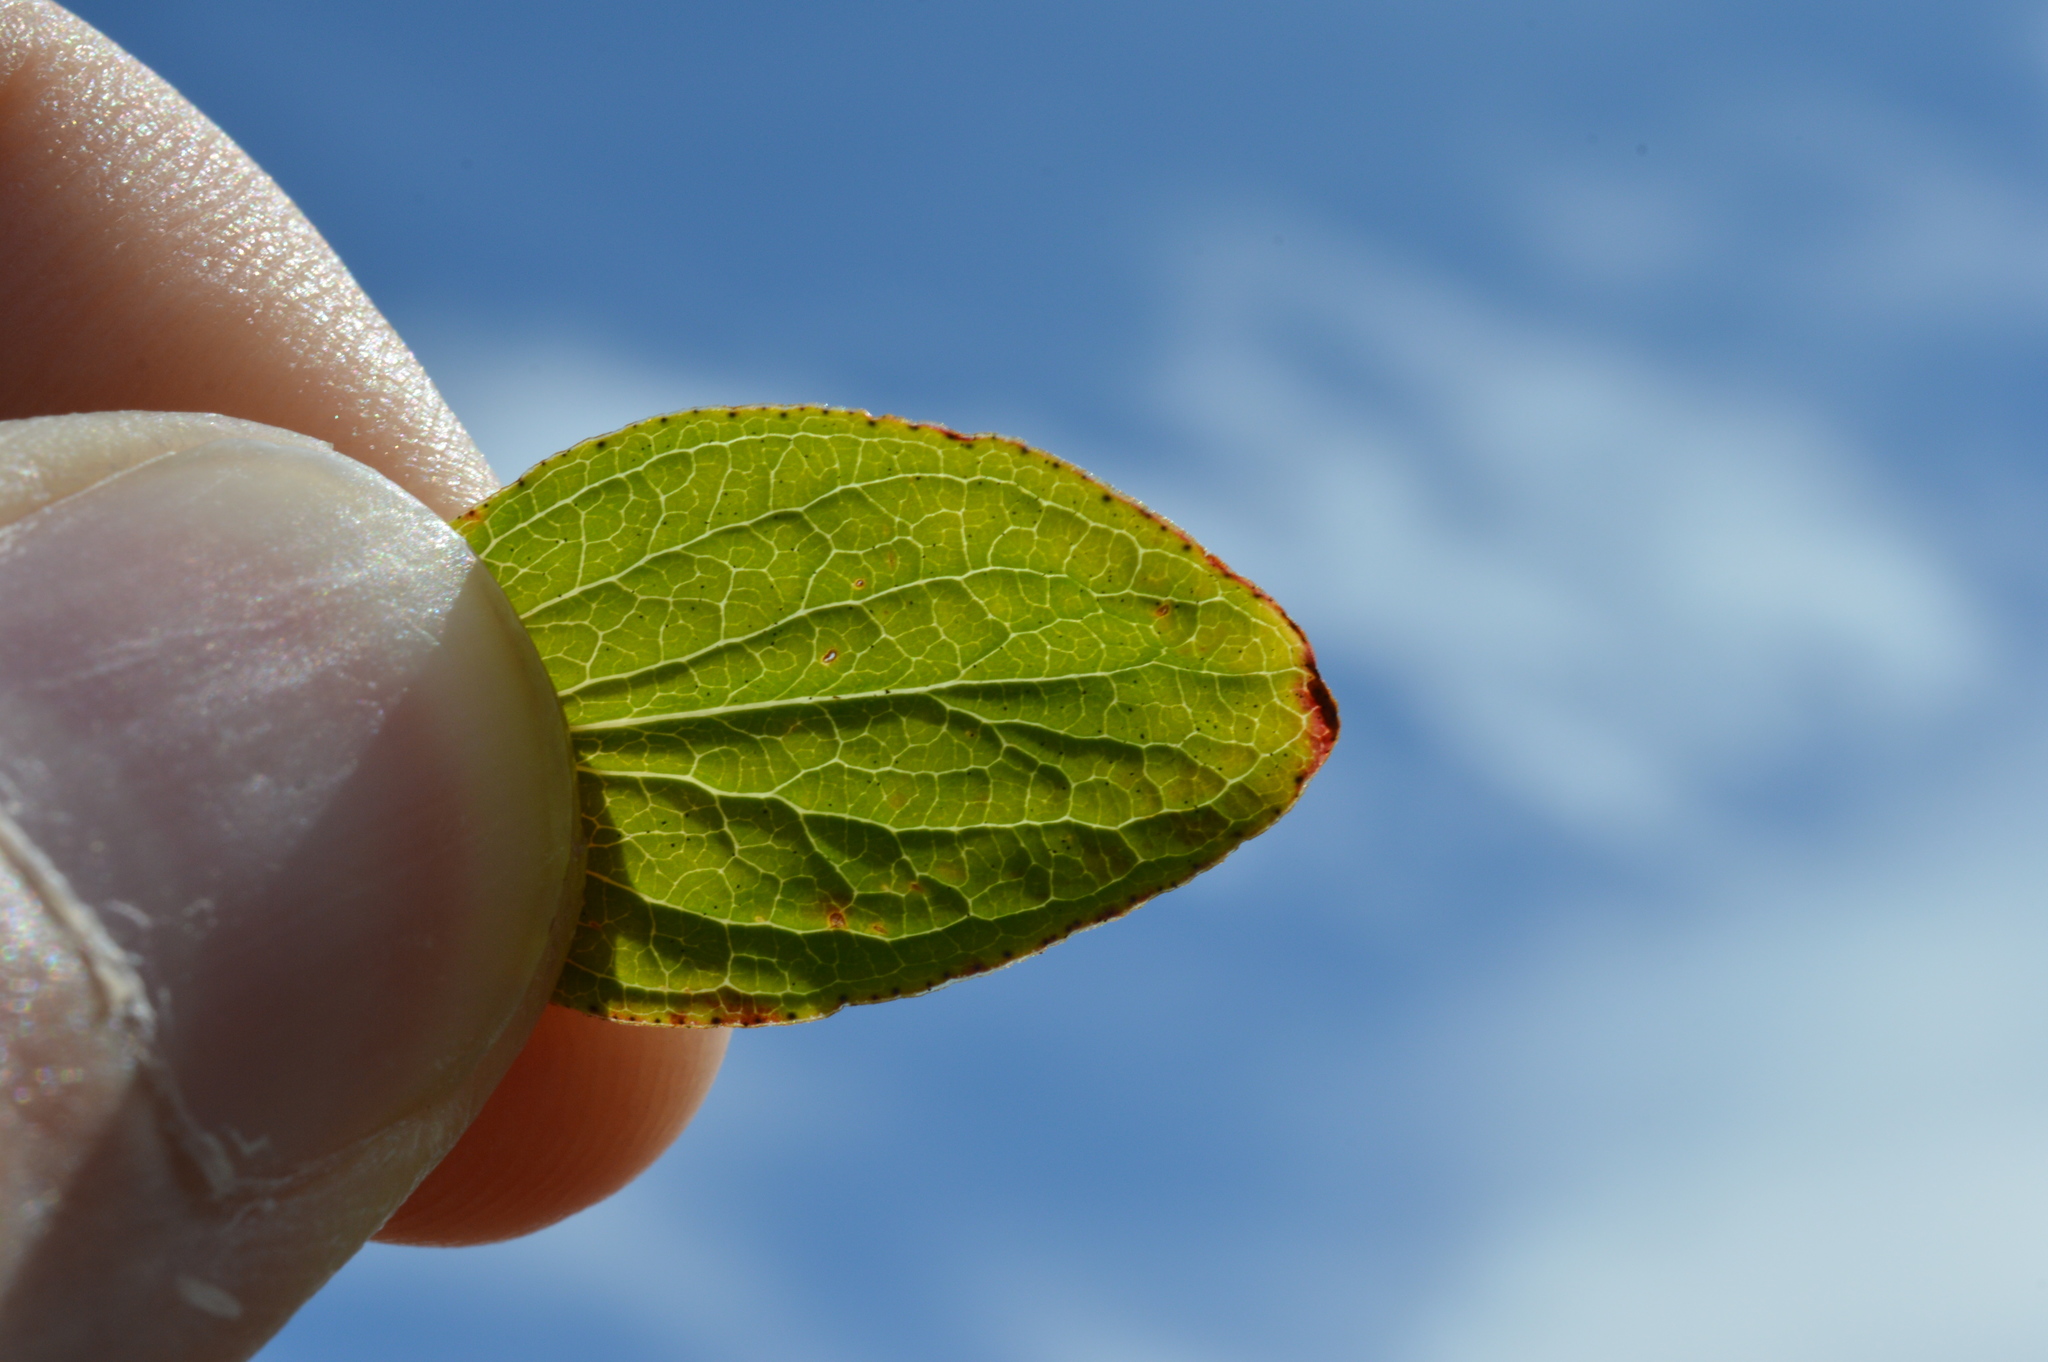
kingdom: Plantae
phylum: Tracheophyta
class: Magnoliopsida
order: Malpighiales
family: Hypericaceae
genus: Hypericum
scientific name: Hypericum maculatum
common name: Imperforate st. john's-wort
